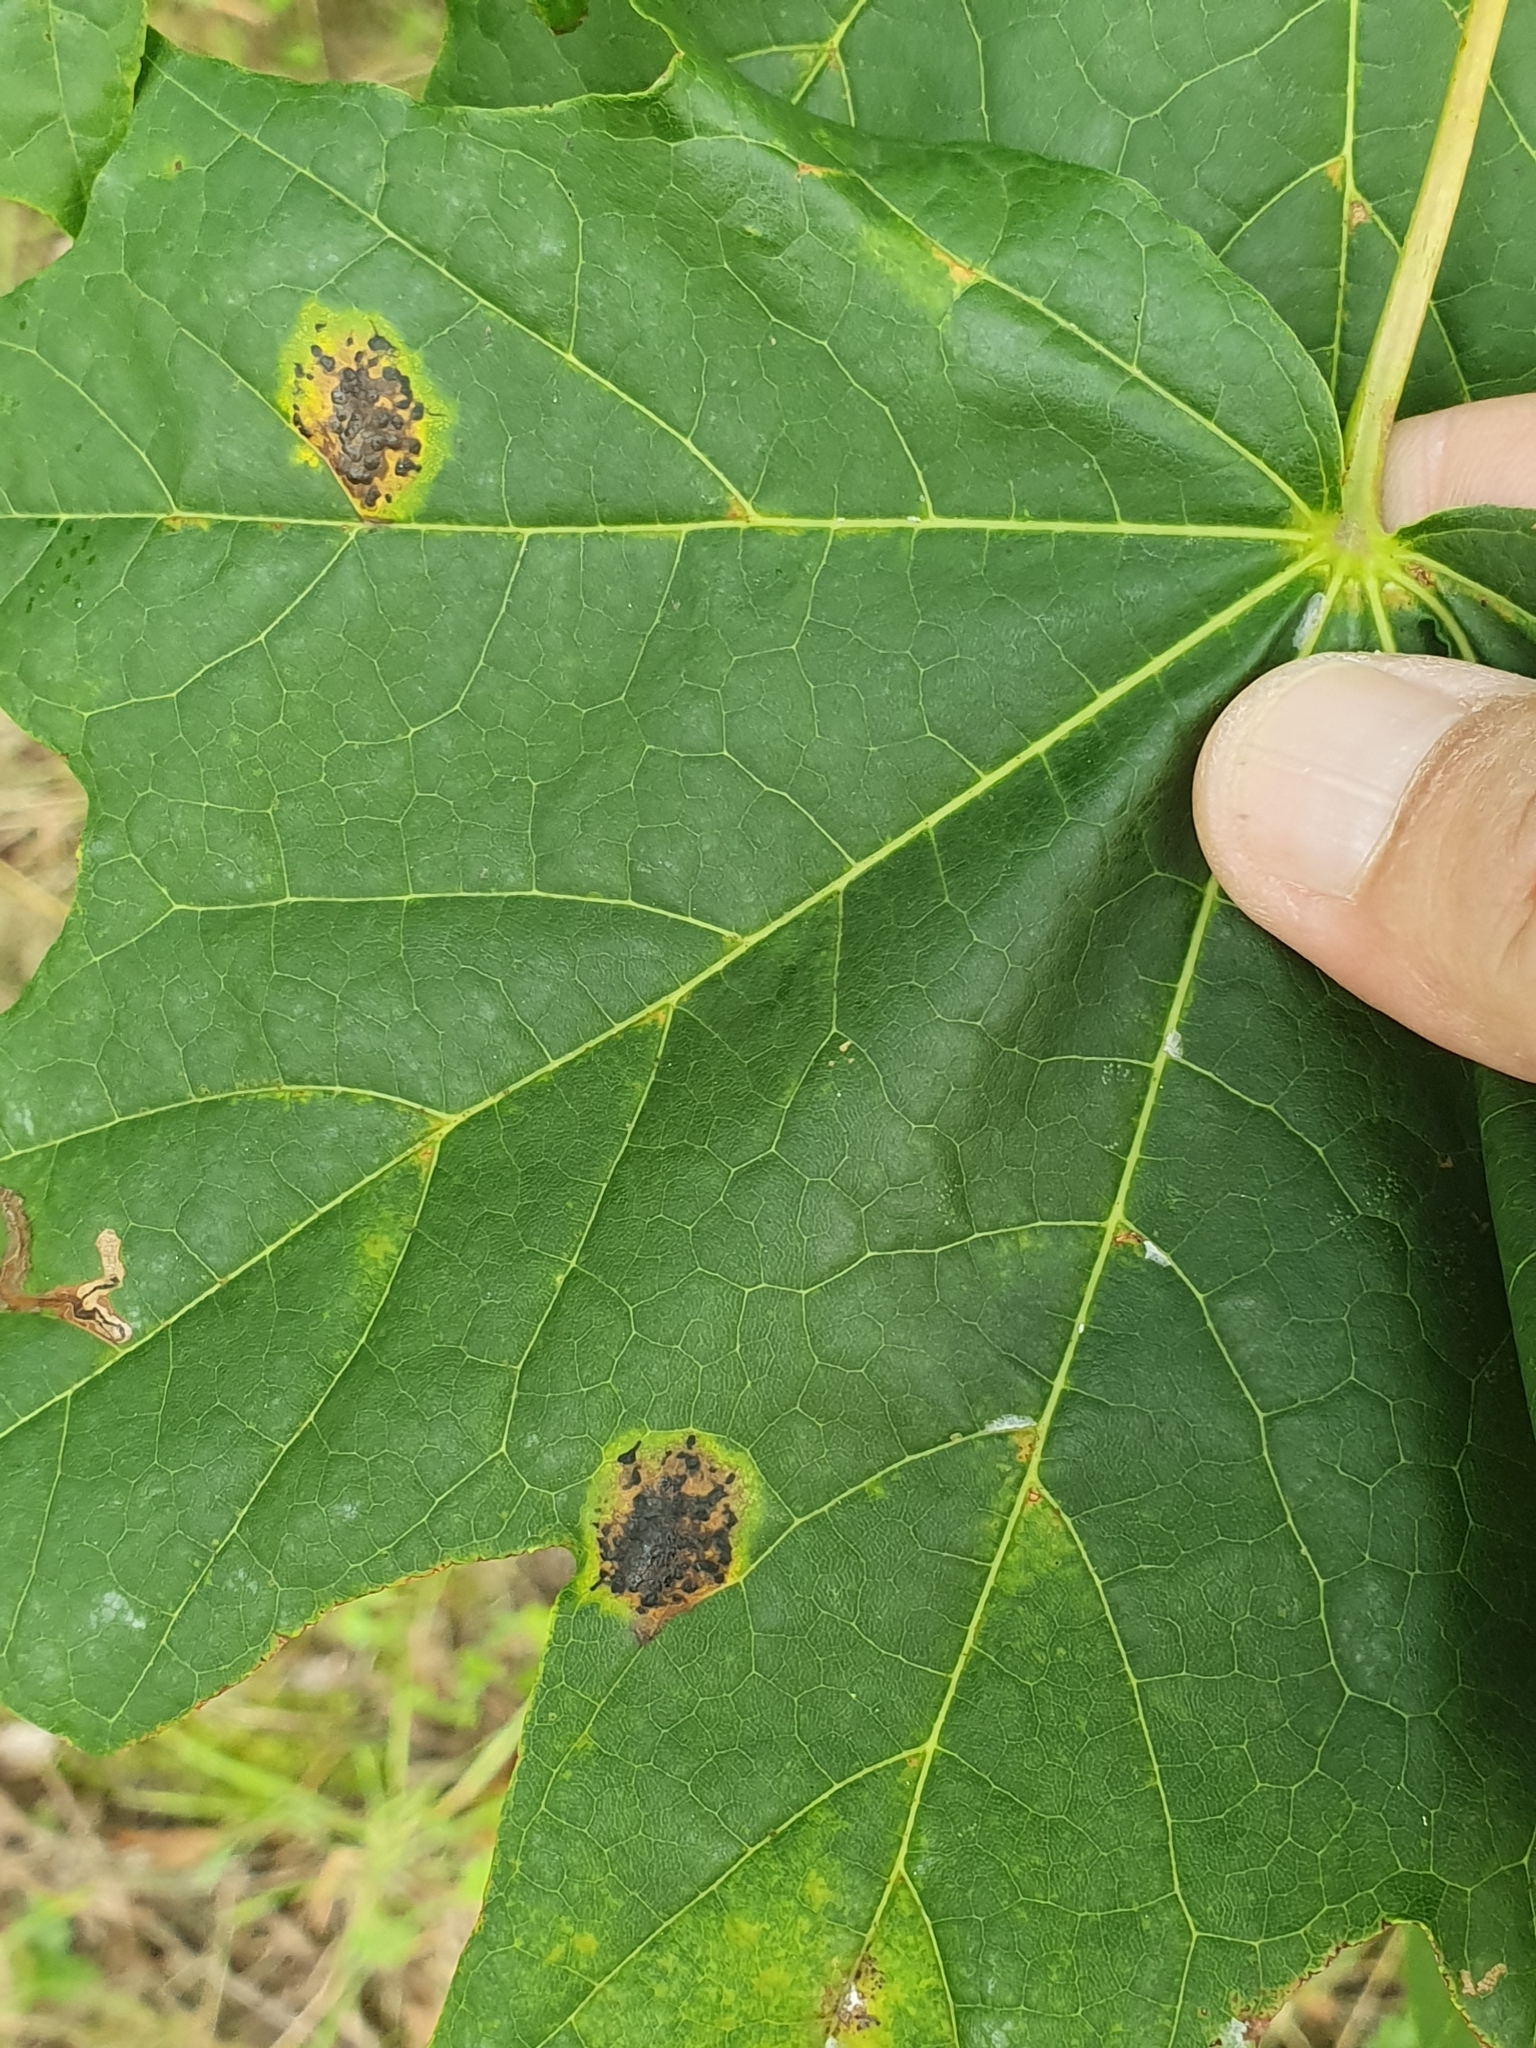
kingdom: Fungi
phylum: Ascomycota
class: Leotiomycetes
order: Rhytismatales
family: Rhytismataceae
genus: Rhytisma
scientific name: Rhytisma acerinum
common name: European tar spot
